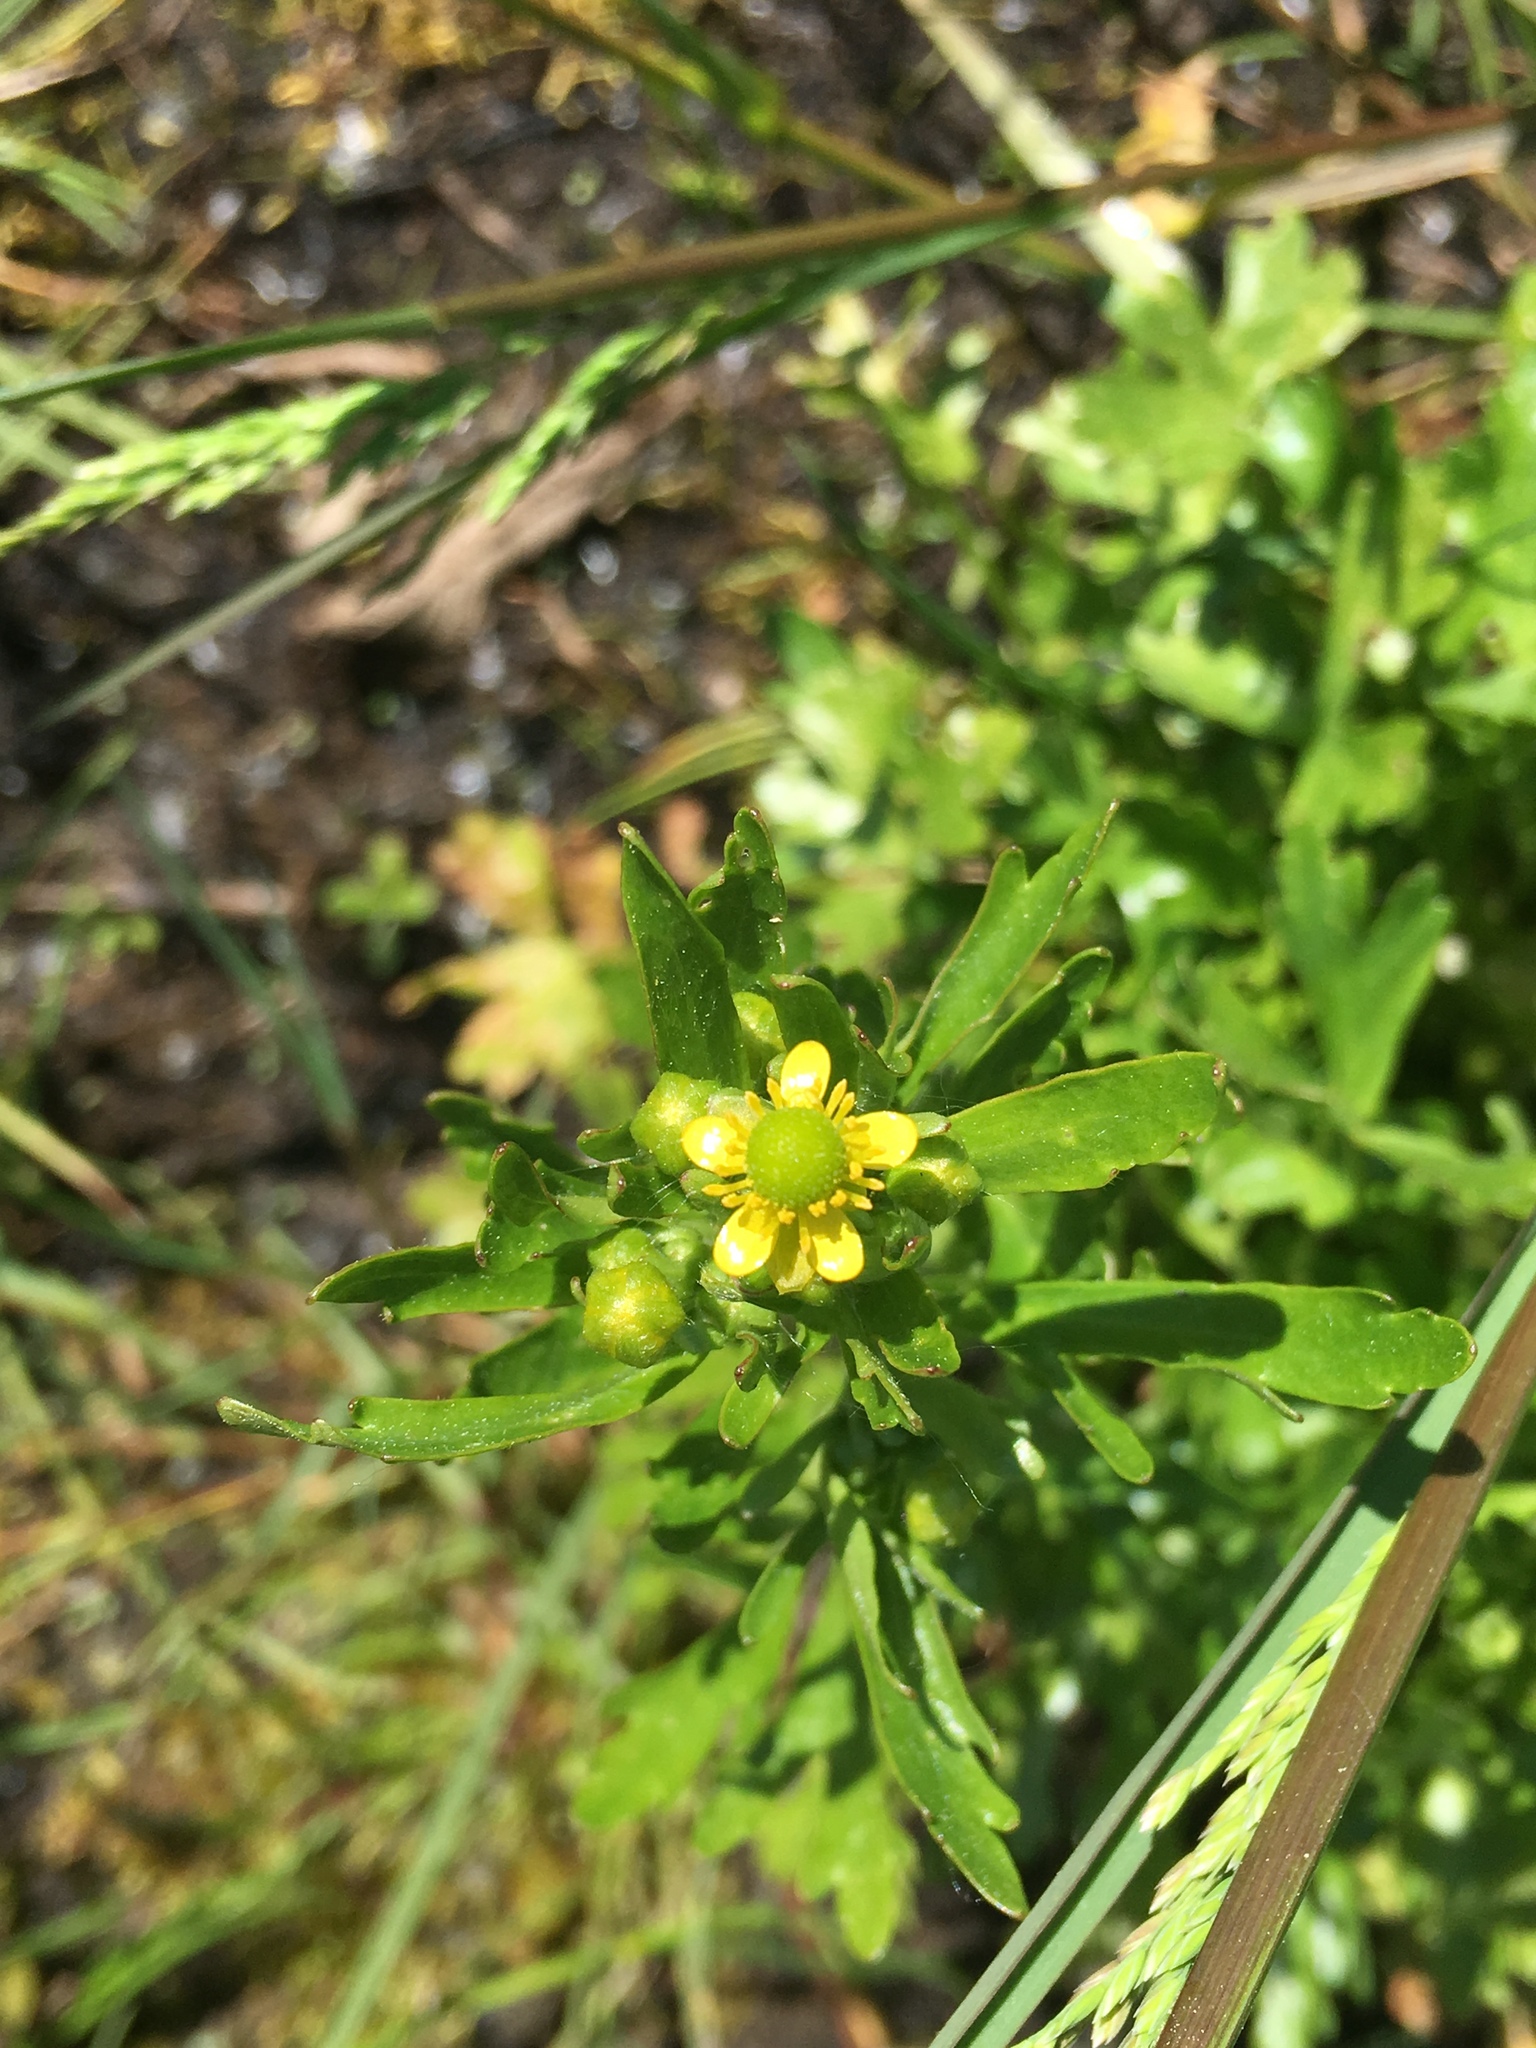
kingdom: Plantae
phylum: Tracheophyta
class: Magnoliopsida
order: Ranunculales
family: Ranunculaceae
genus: Ranunculus
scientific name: Ranunculus sceleratus
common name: Celery-leaved buttercup
